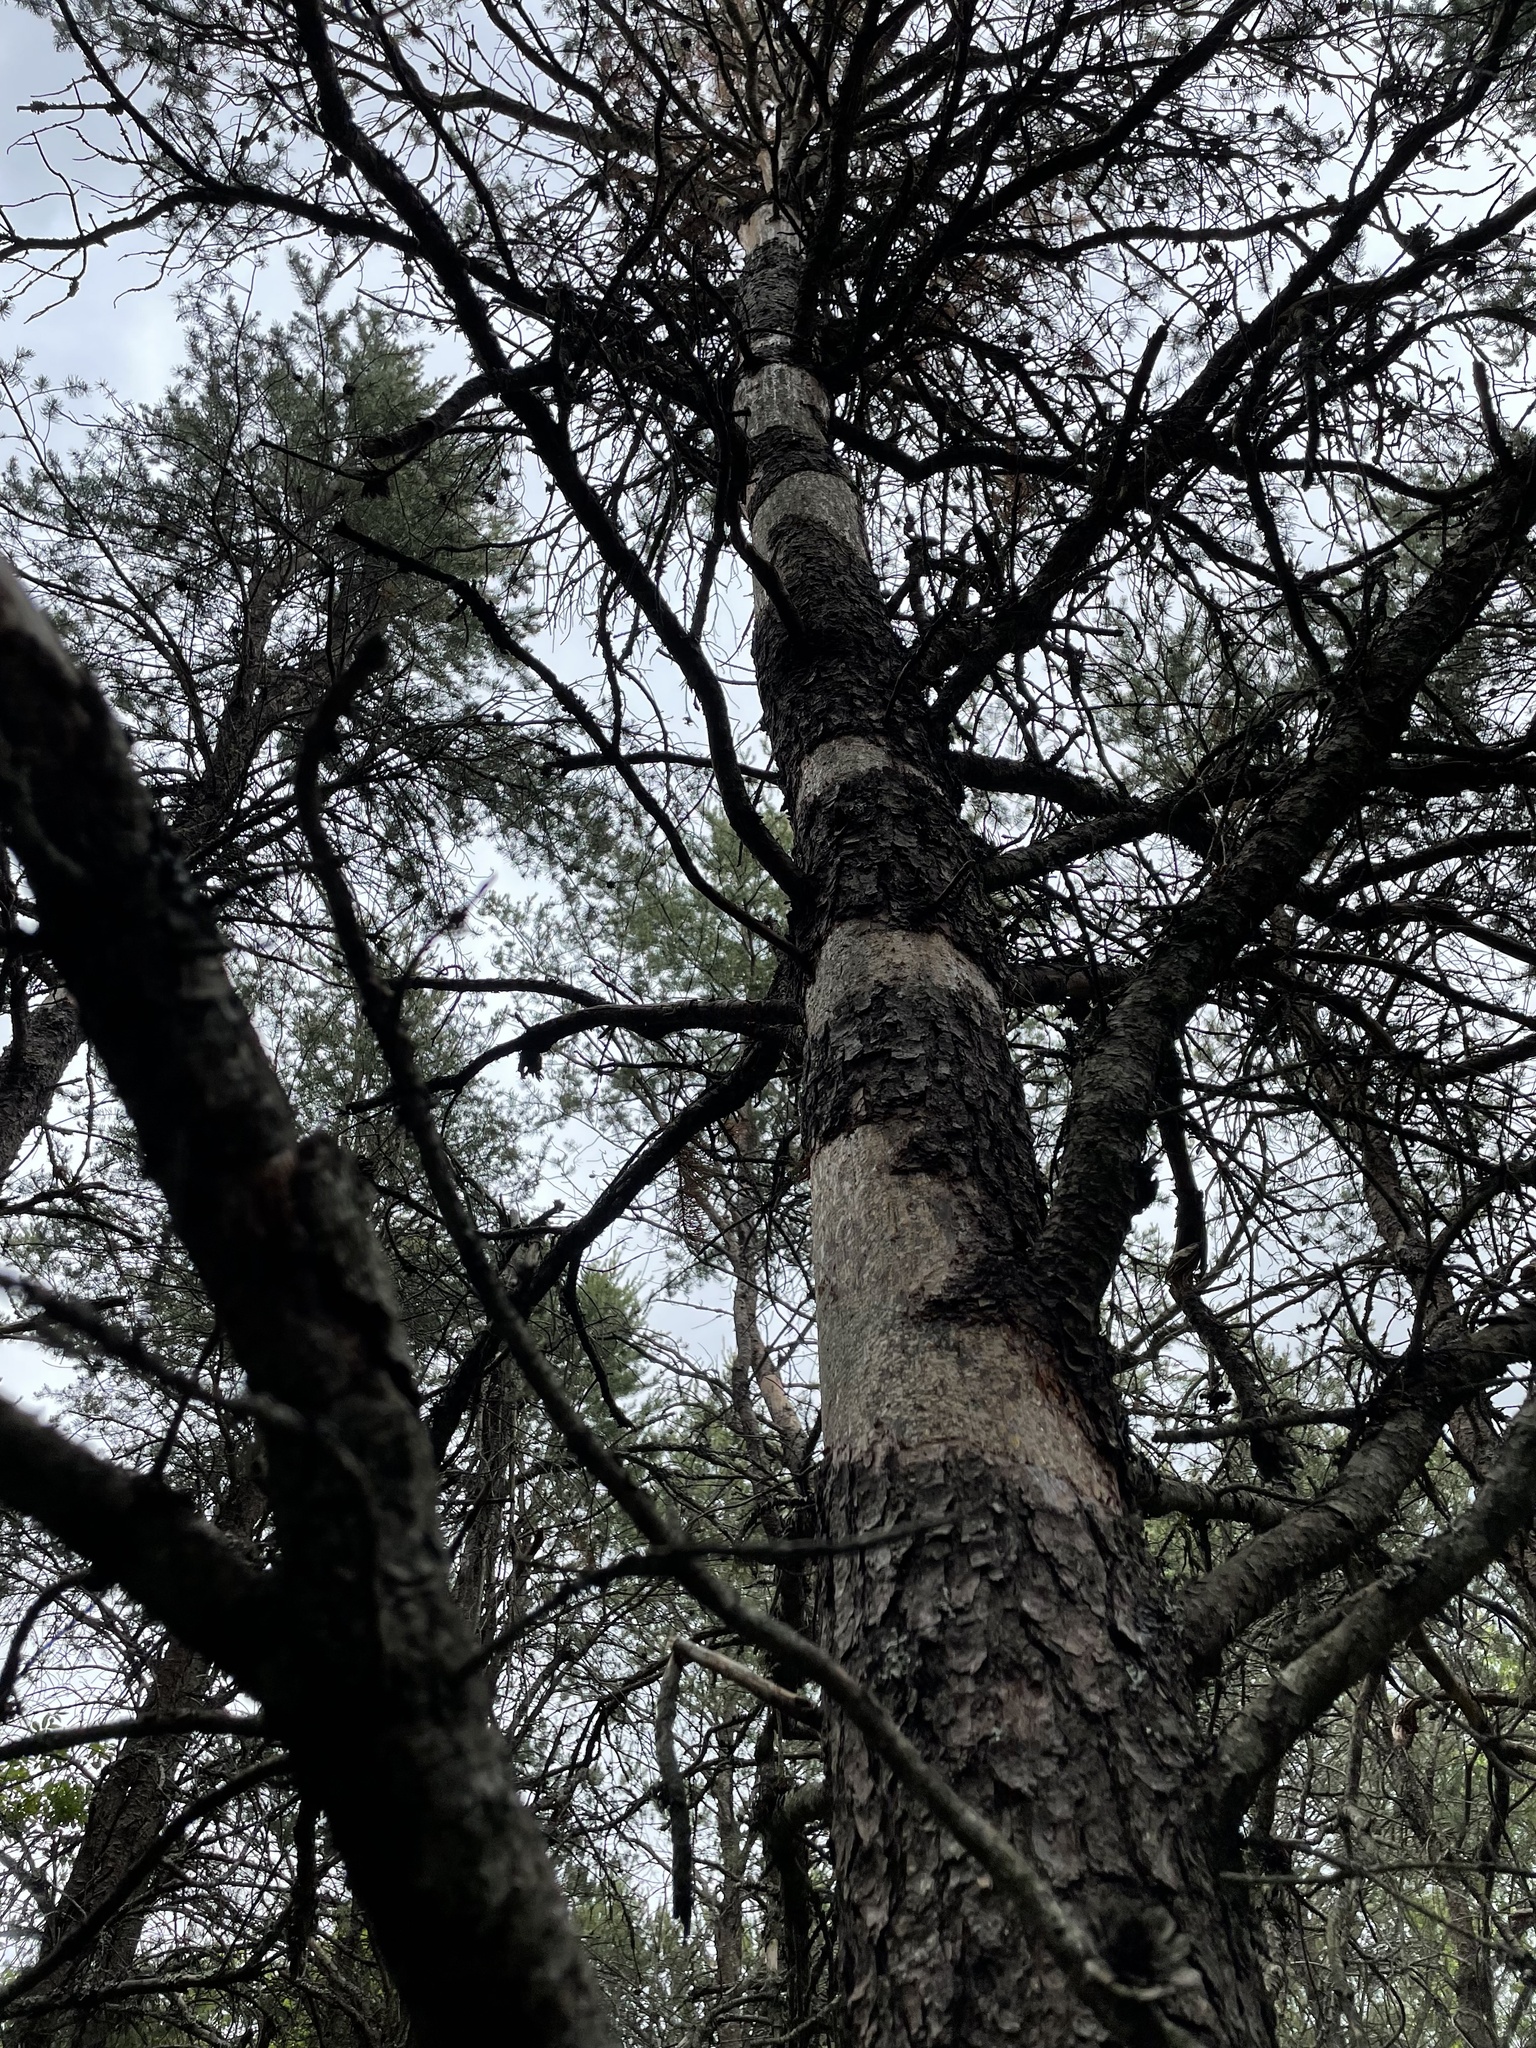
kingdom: Animalia
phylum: Chordata
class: Mammalia
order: Rodentia
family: Erethizontidae
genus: Erethizon
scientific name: Erethizon dorsatus
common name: North american porcupine
